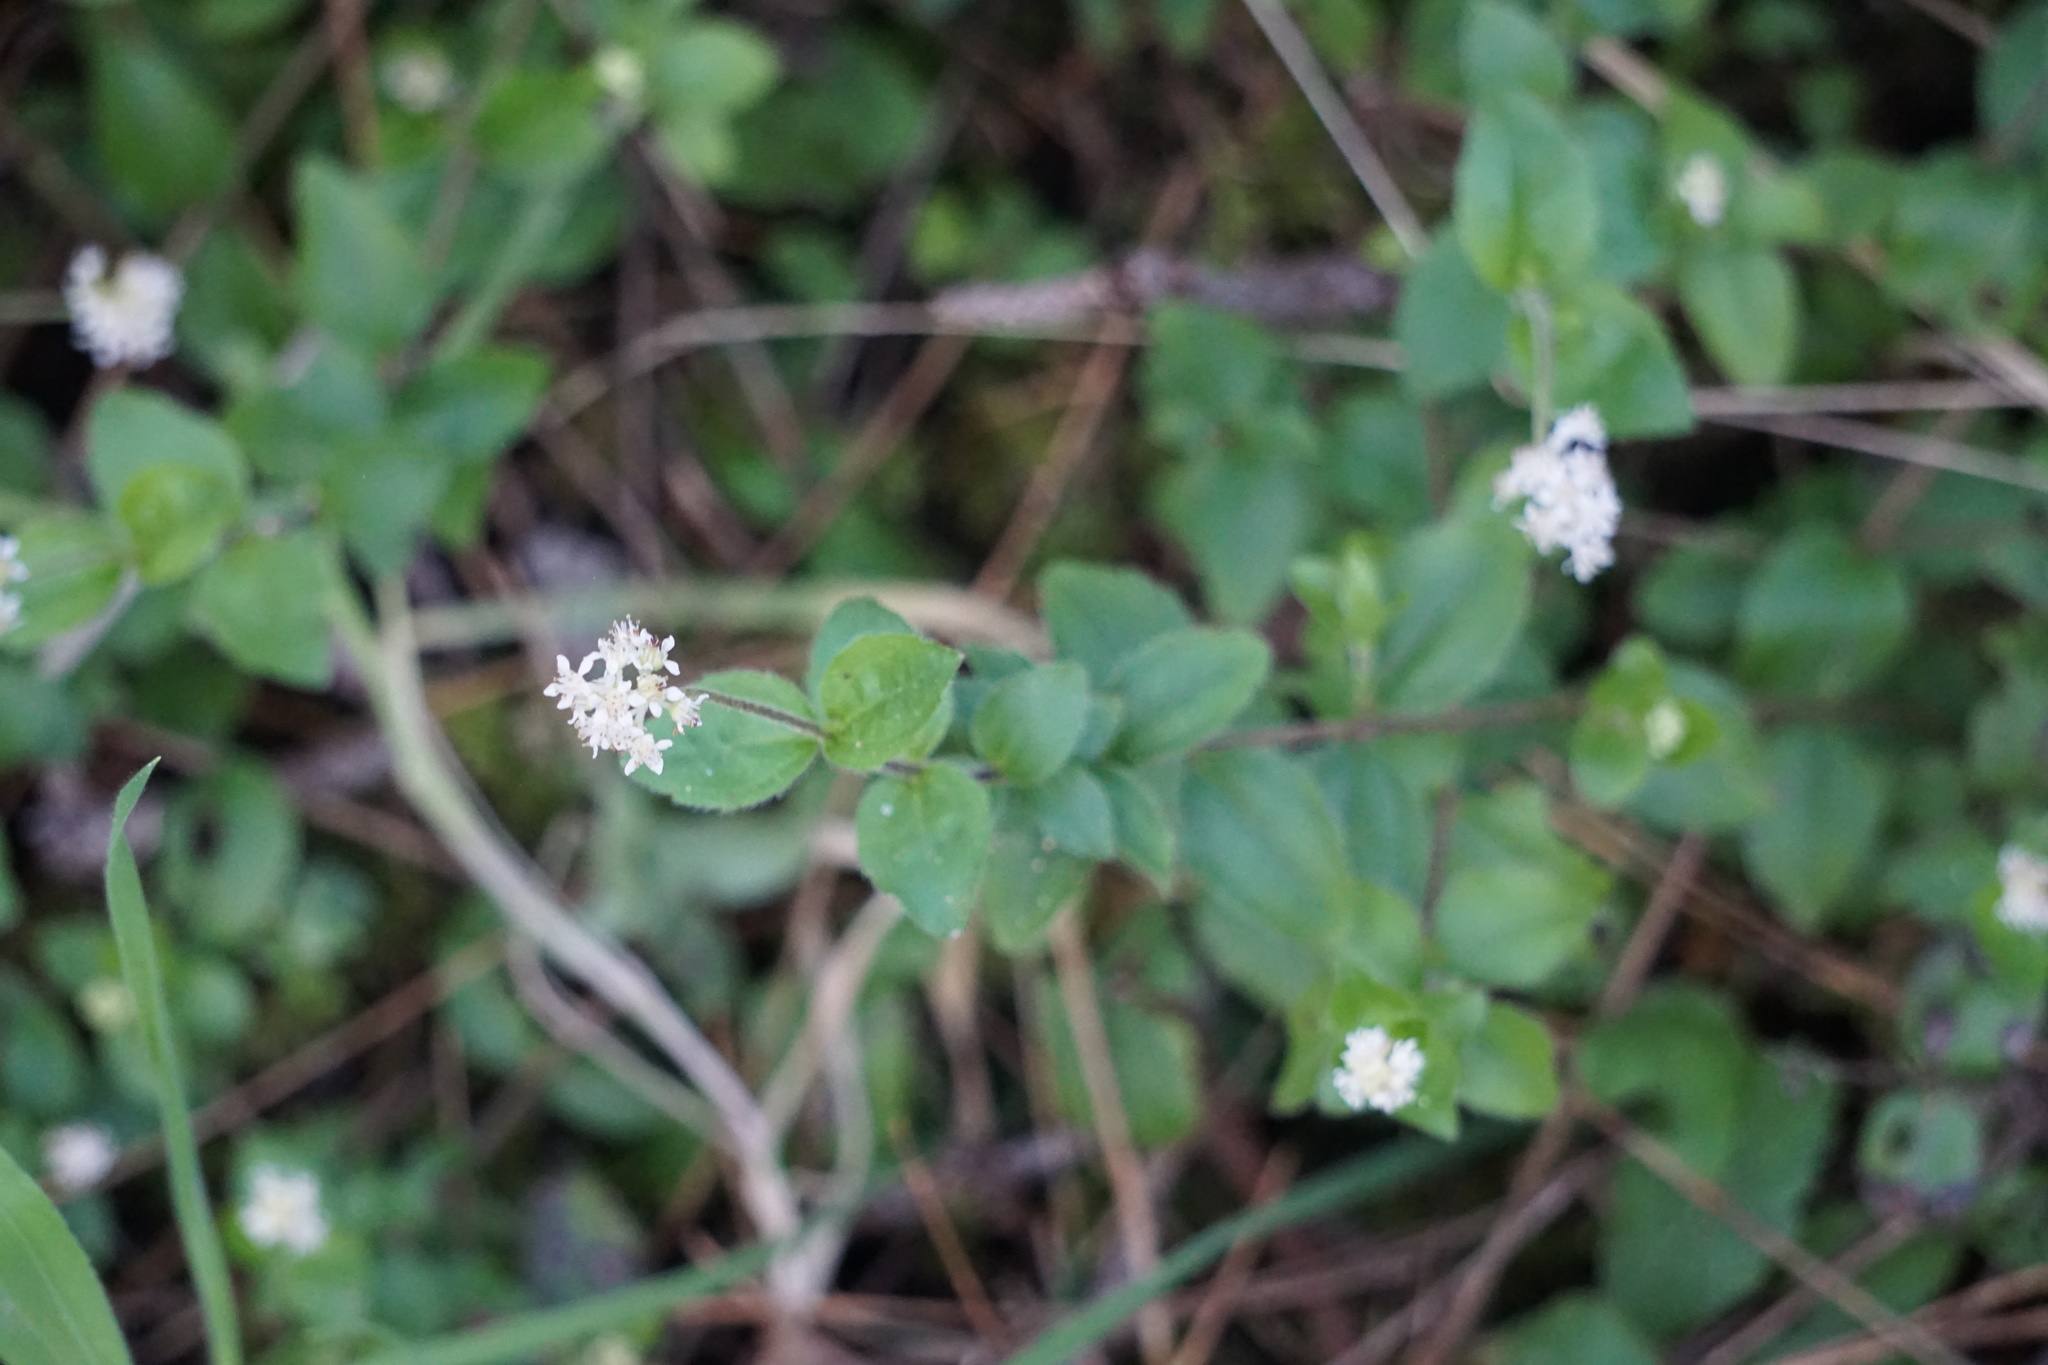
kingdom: Plantae
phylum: Tracheophyta
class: Magnoliopsida
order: Cornales
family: Hydrangeaceae
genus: Whipplea
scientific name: Whipplea modesta
